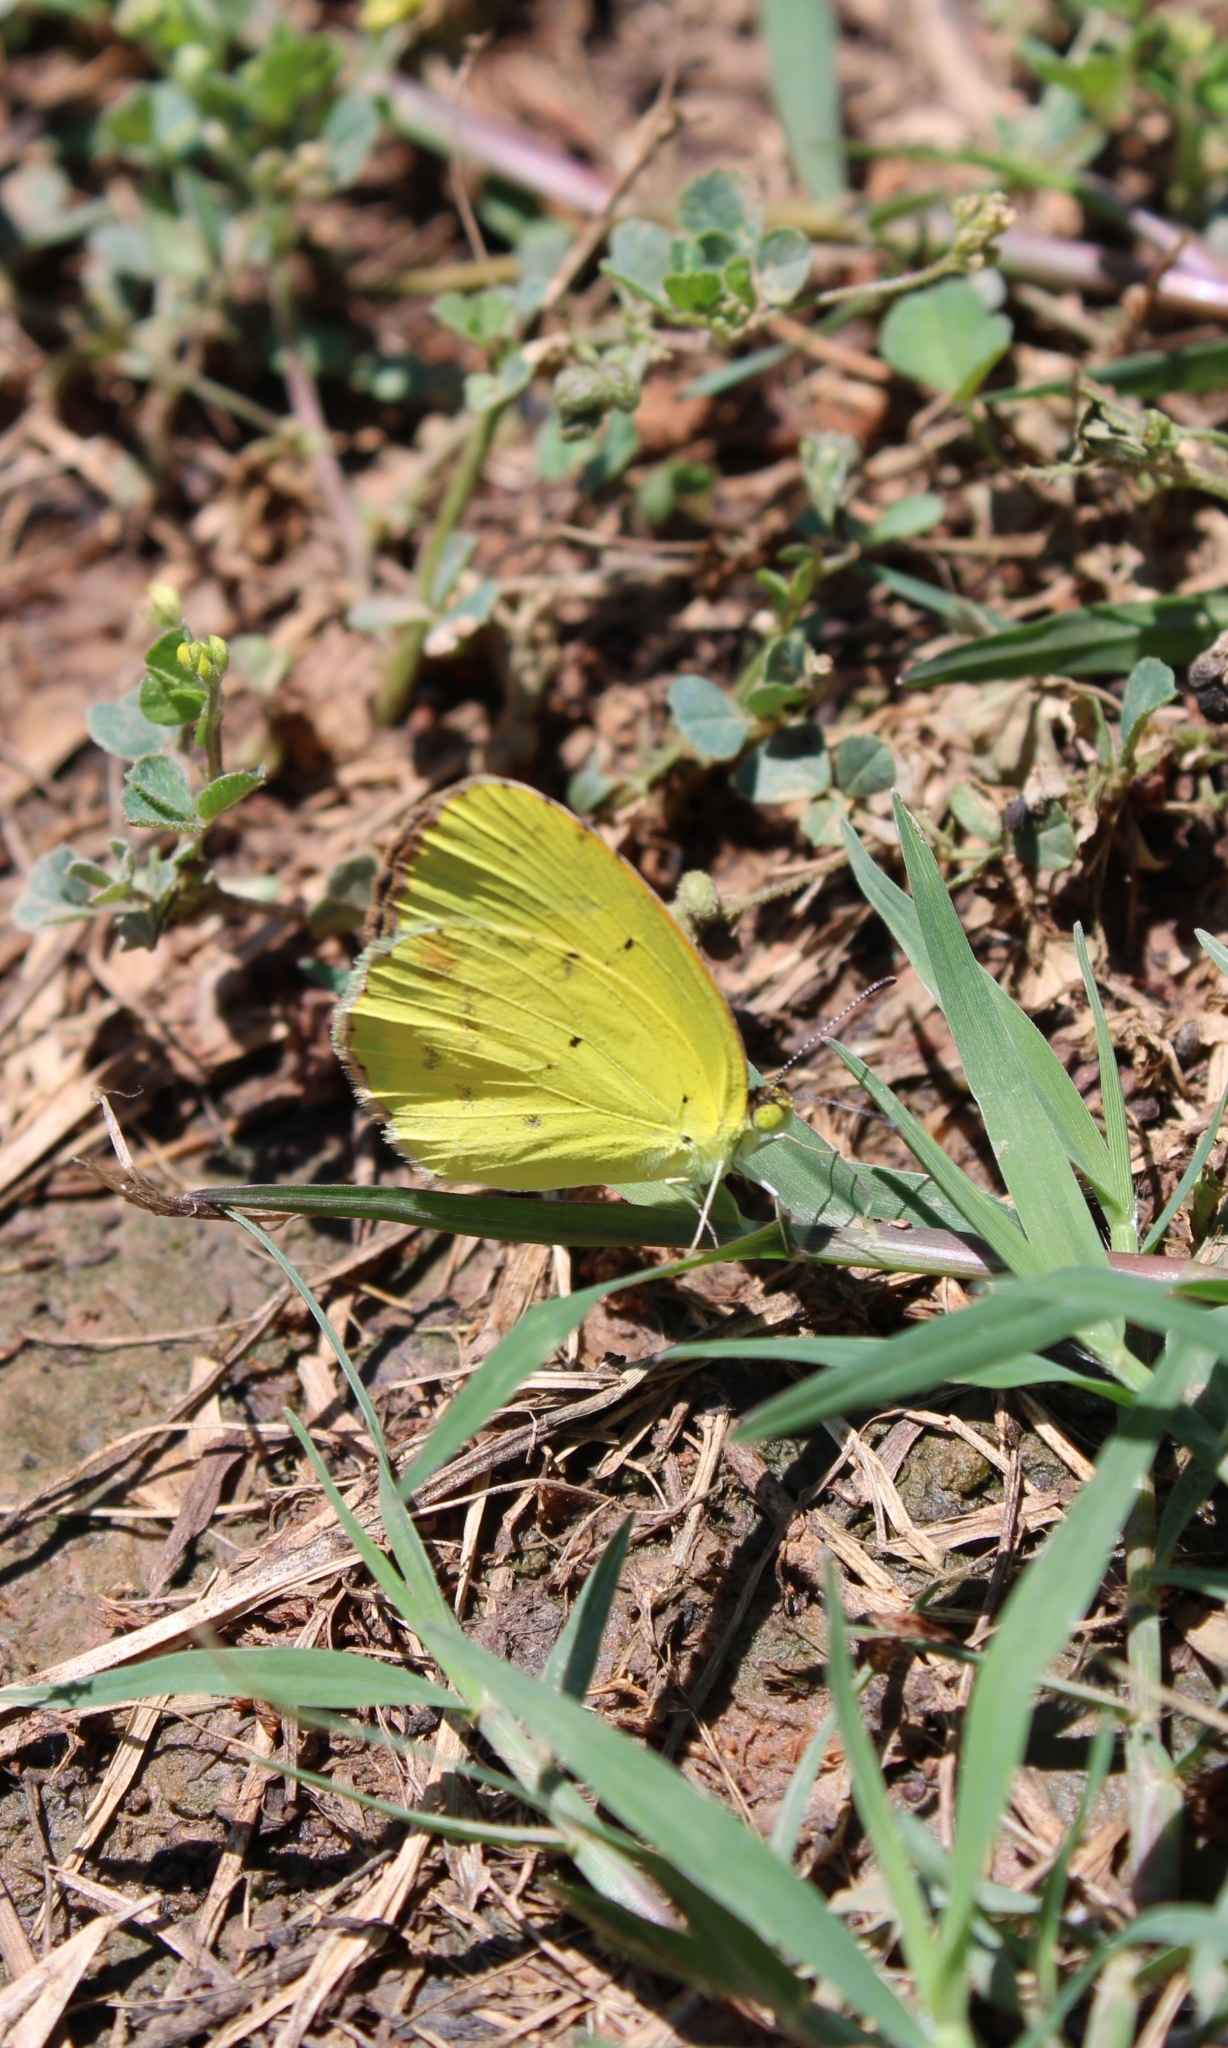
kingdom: Animalia
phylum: Arthropoda
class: Insecta
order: Lepidoptera
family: Pieridae
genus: Pyrisitia
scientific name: Pyrisitia lisa
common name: Little yellow
